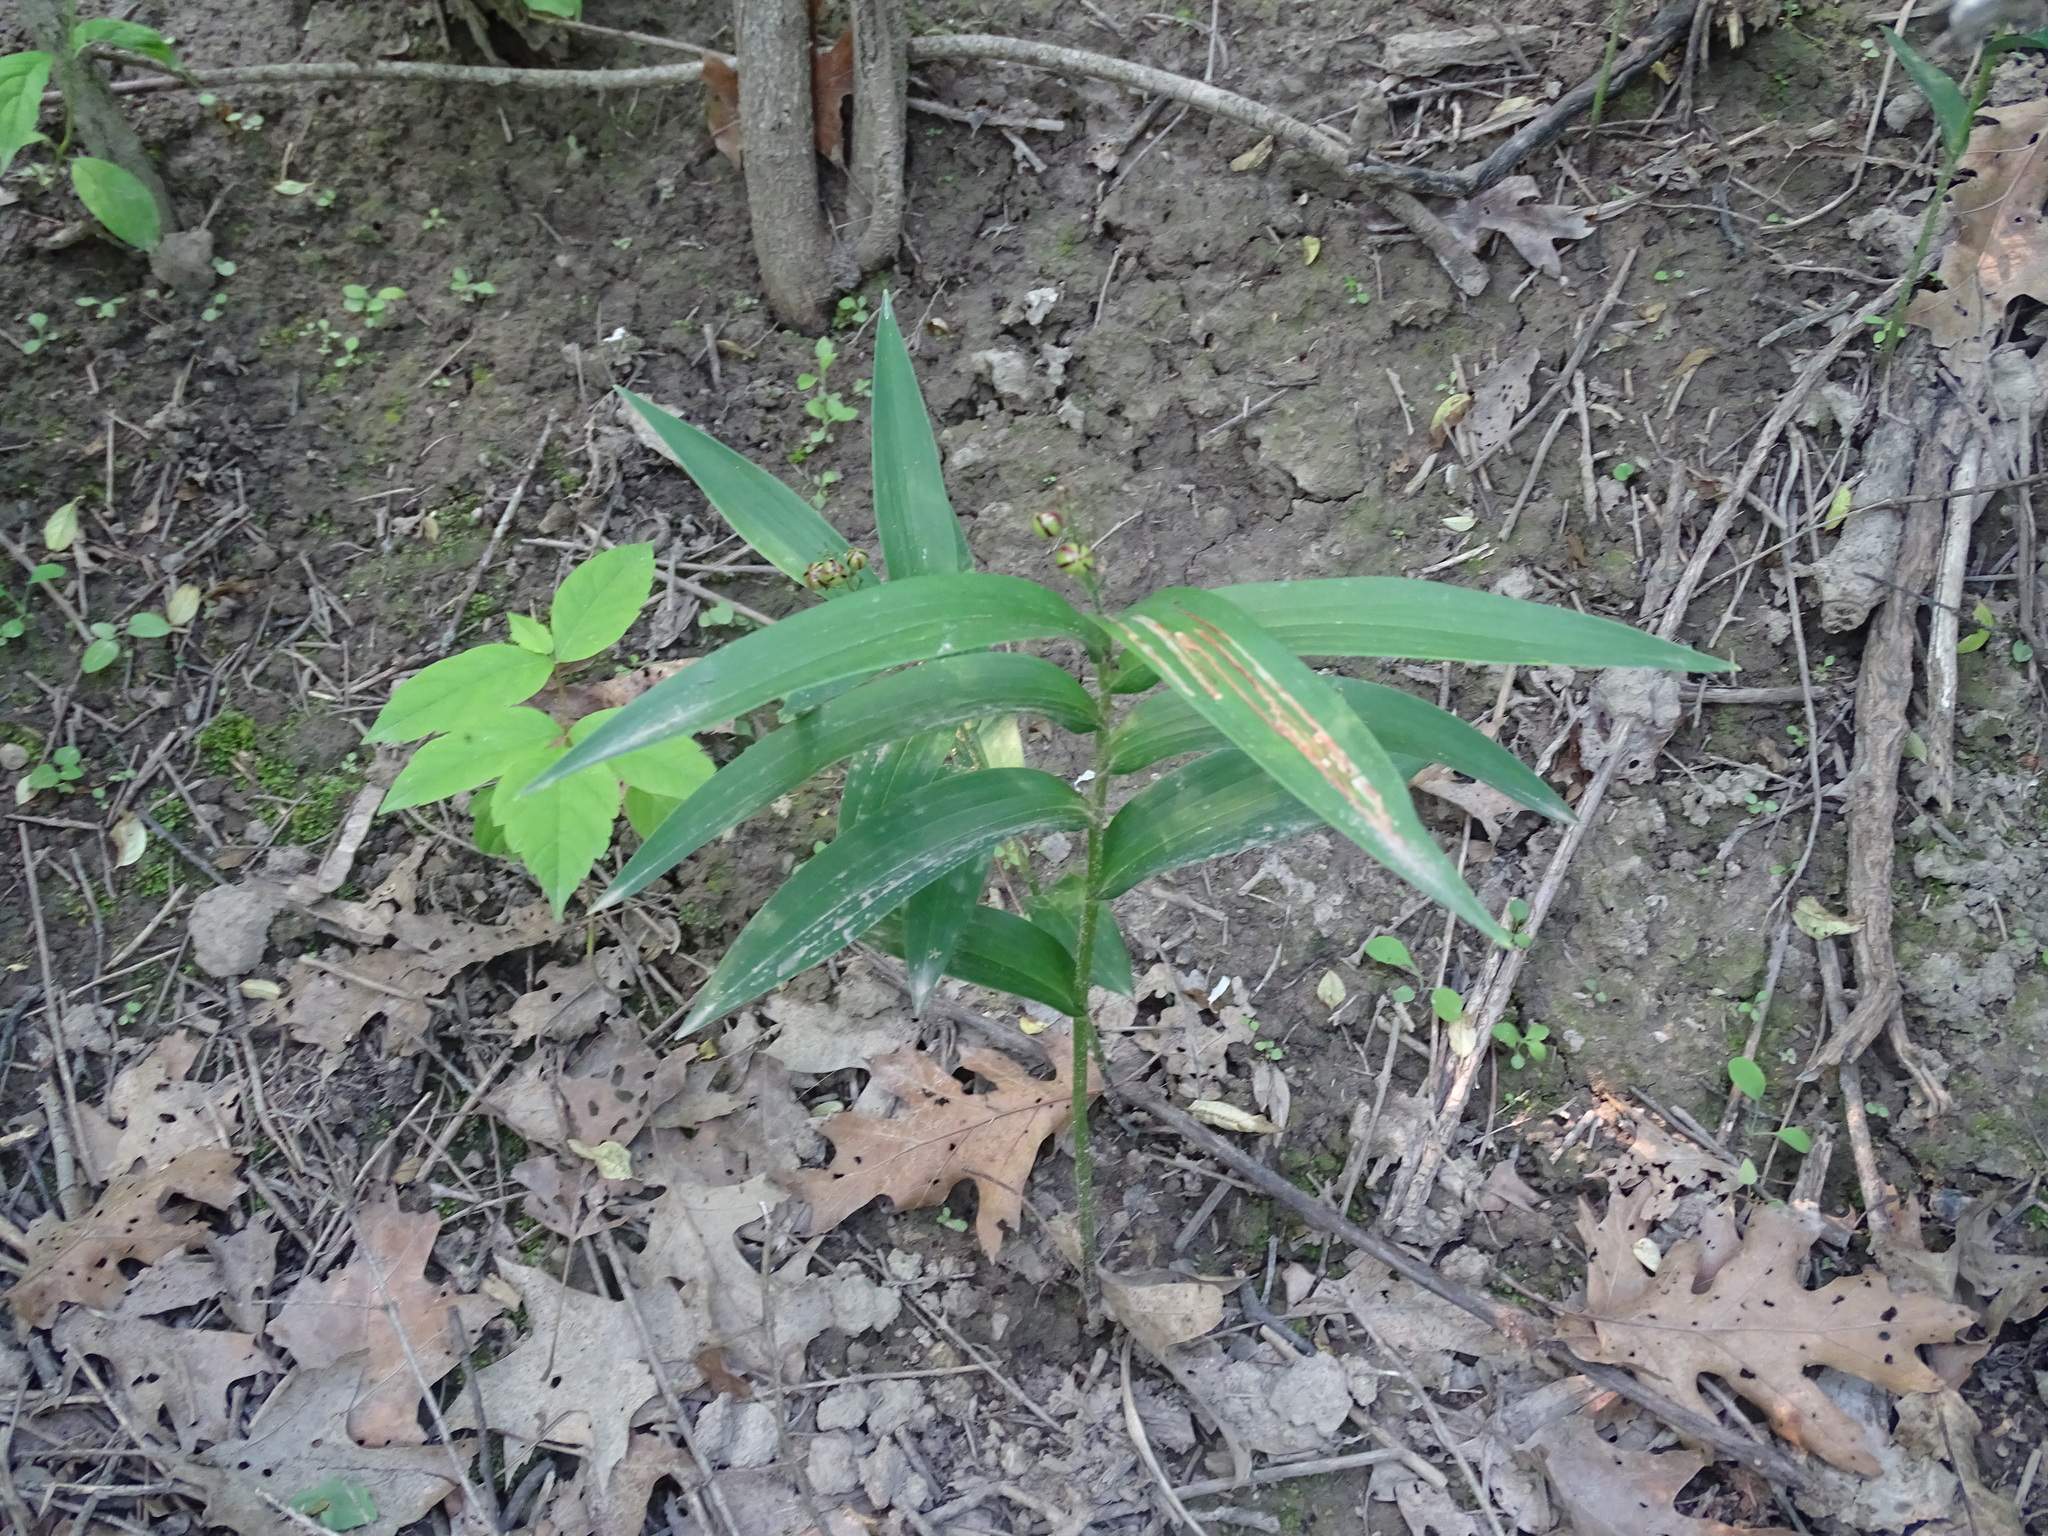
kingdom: Plantae
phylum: Tracheophyta
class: Liliopsida
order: Asparagales
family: Asparagaceae
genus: Maianthemum
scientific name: Maianthemum stellatum
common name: Little false solomon's seal
